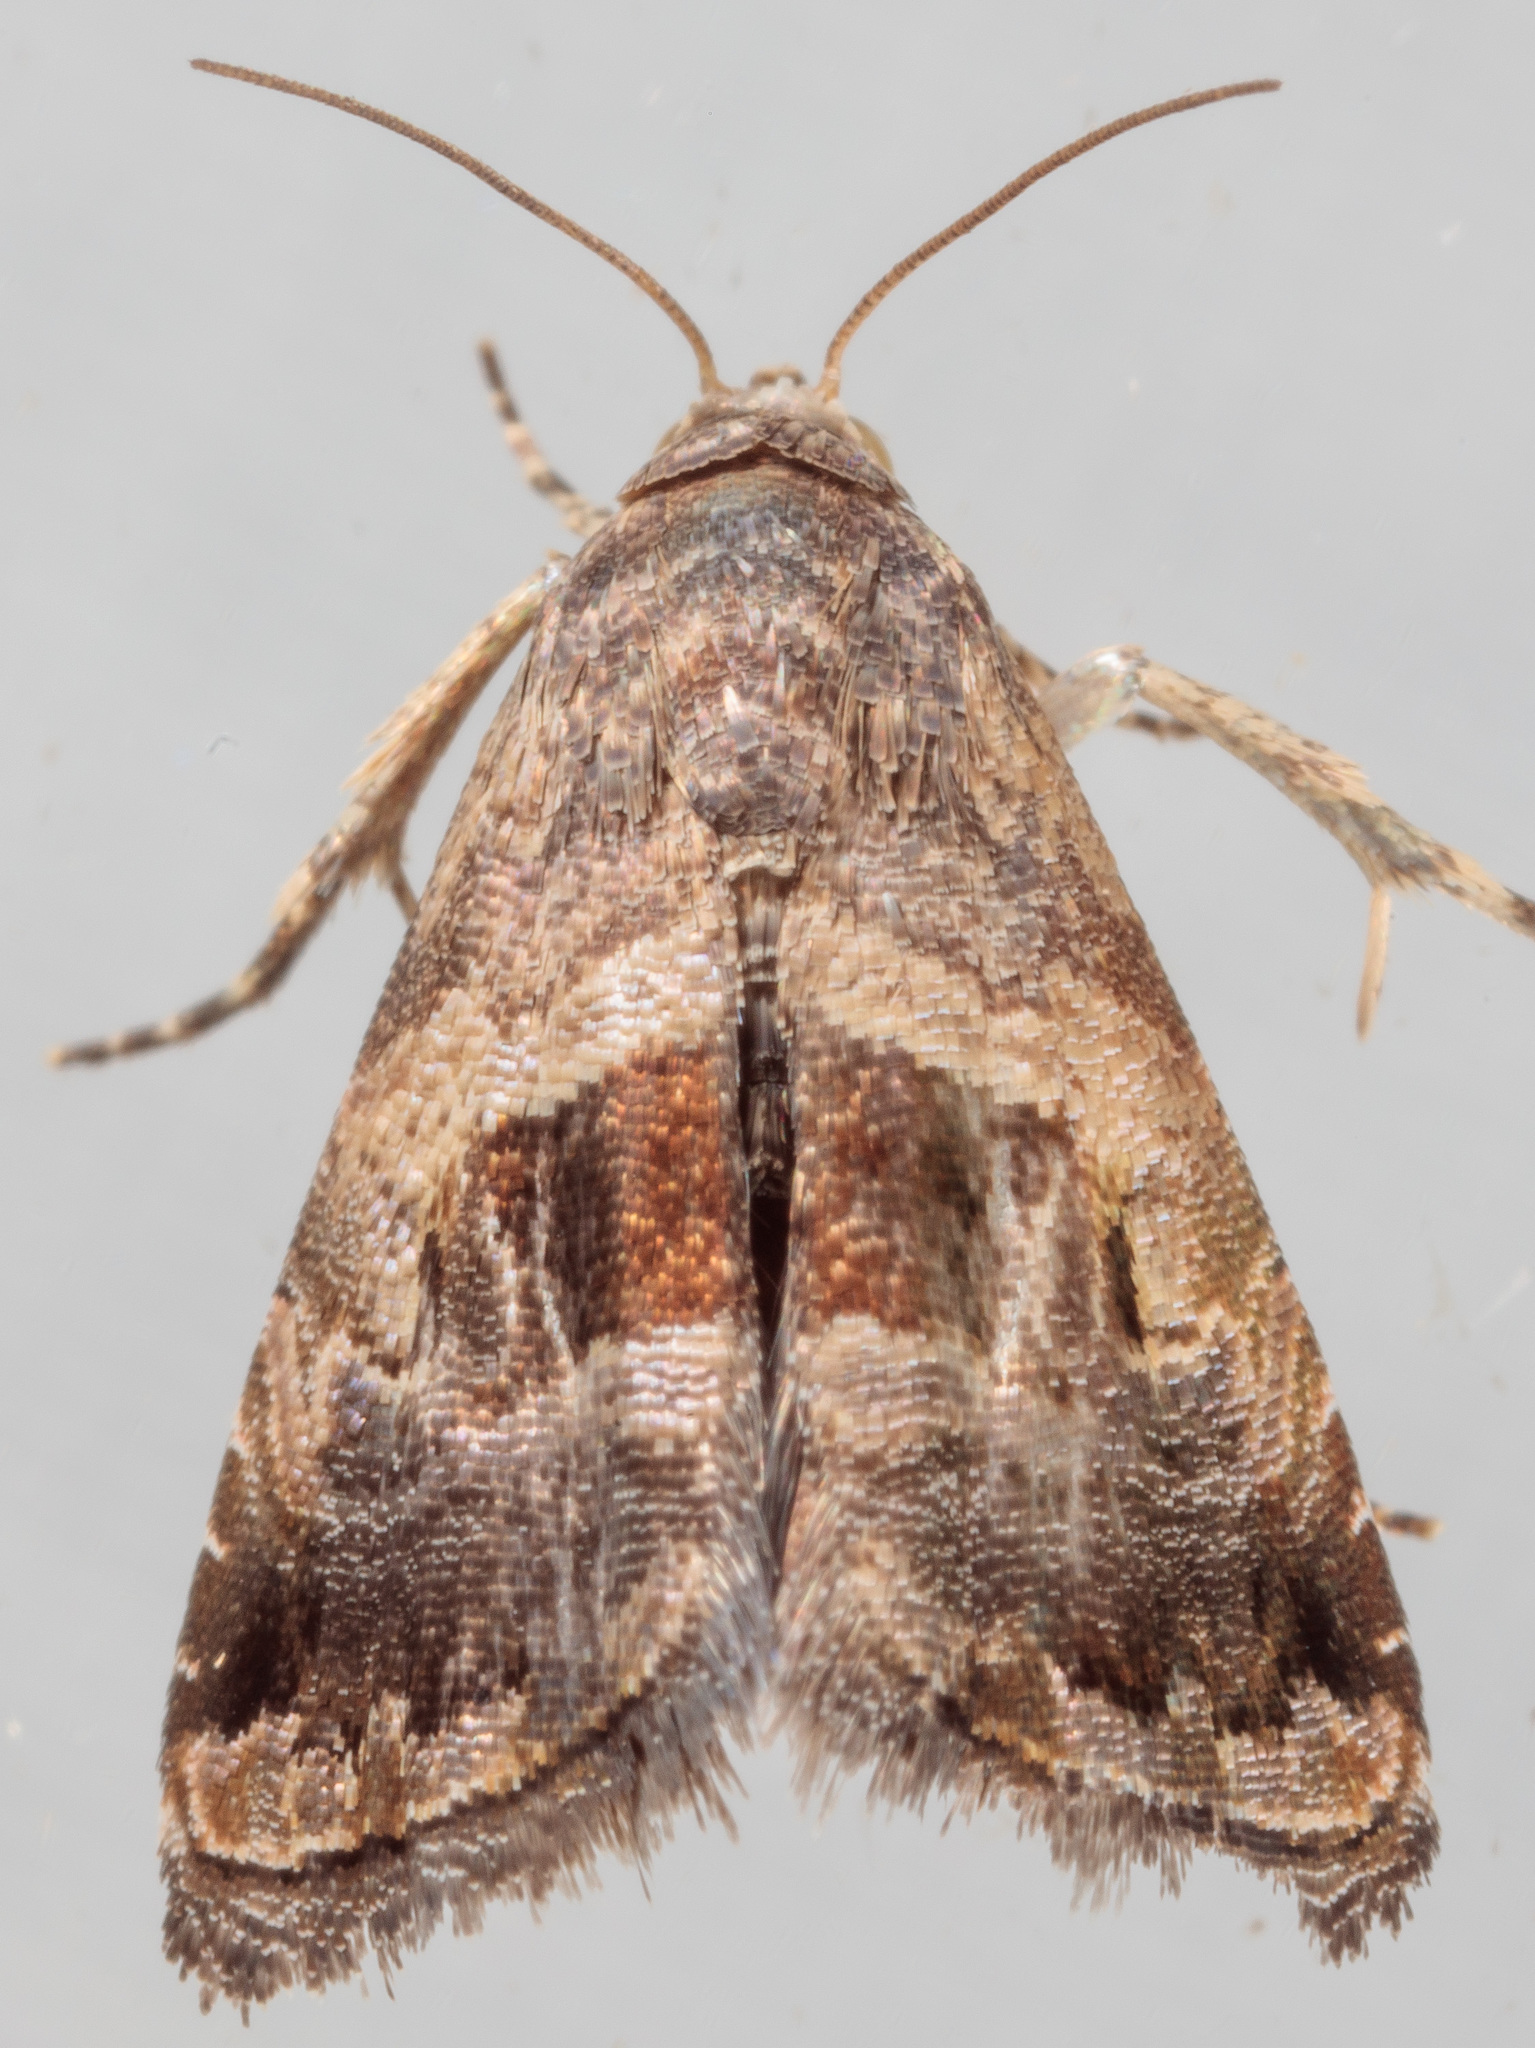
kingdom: Animalia
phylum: Arthropoda
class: Insecta
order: Lepidoptera
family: Noctuidae
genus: Tripudia
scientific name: Tripudia quadrifera
